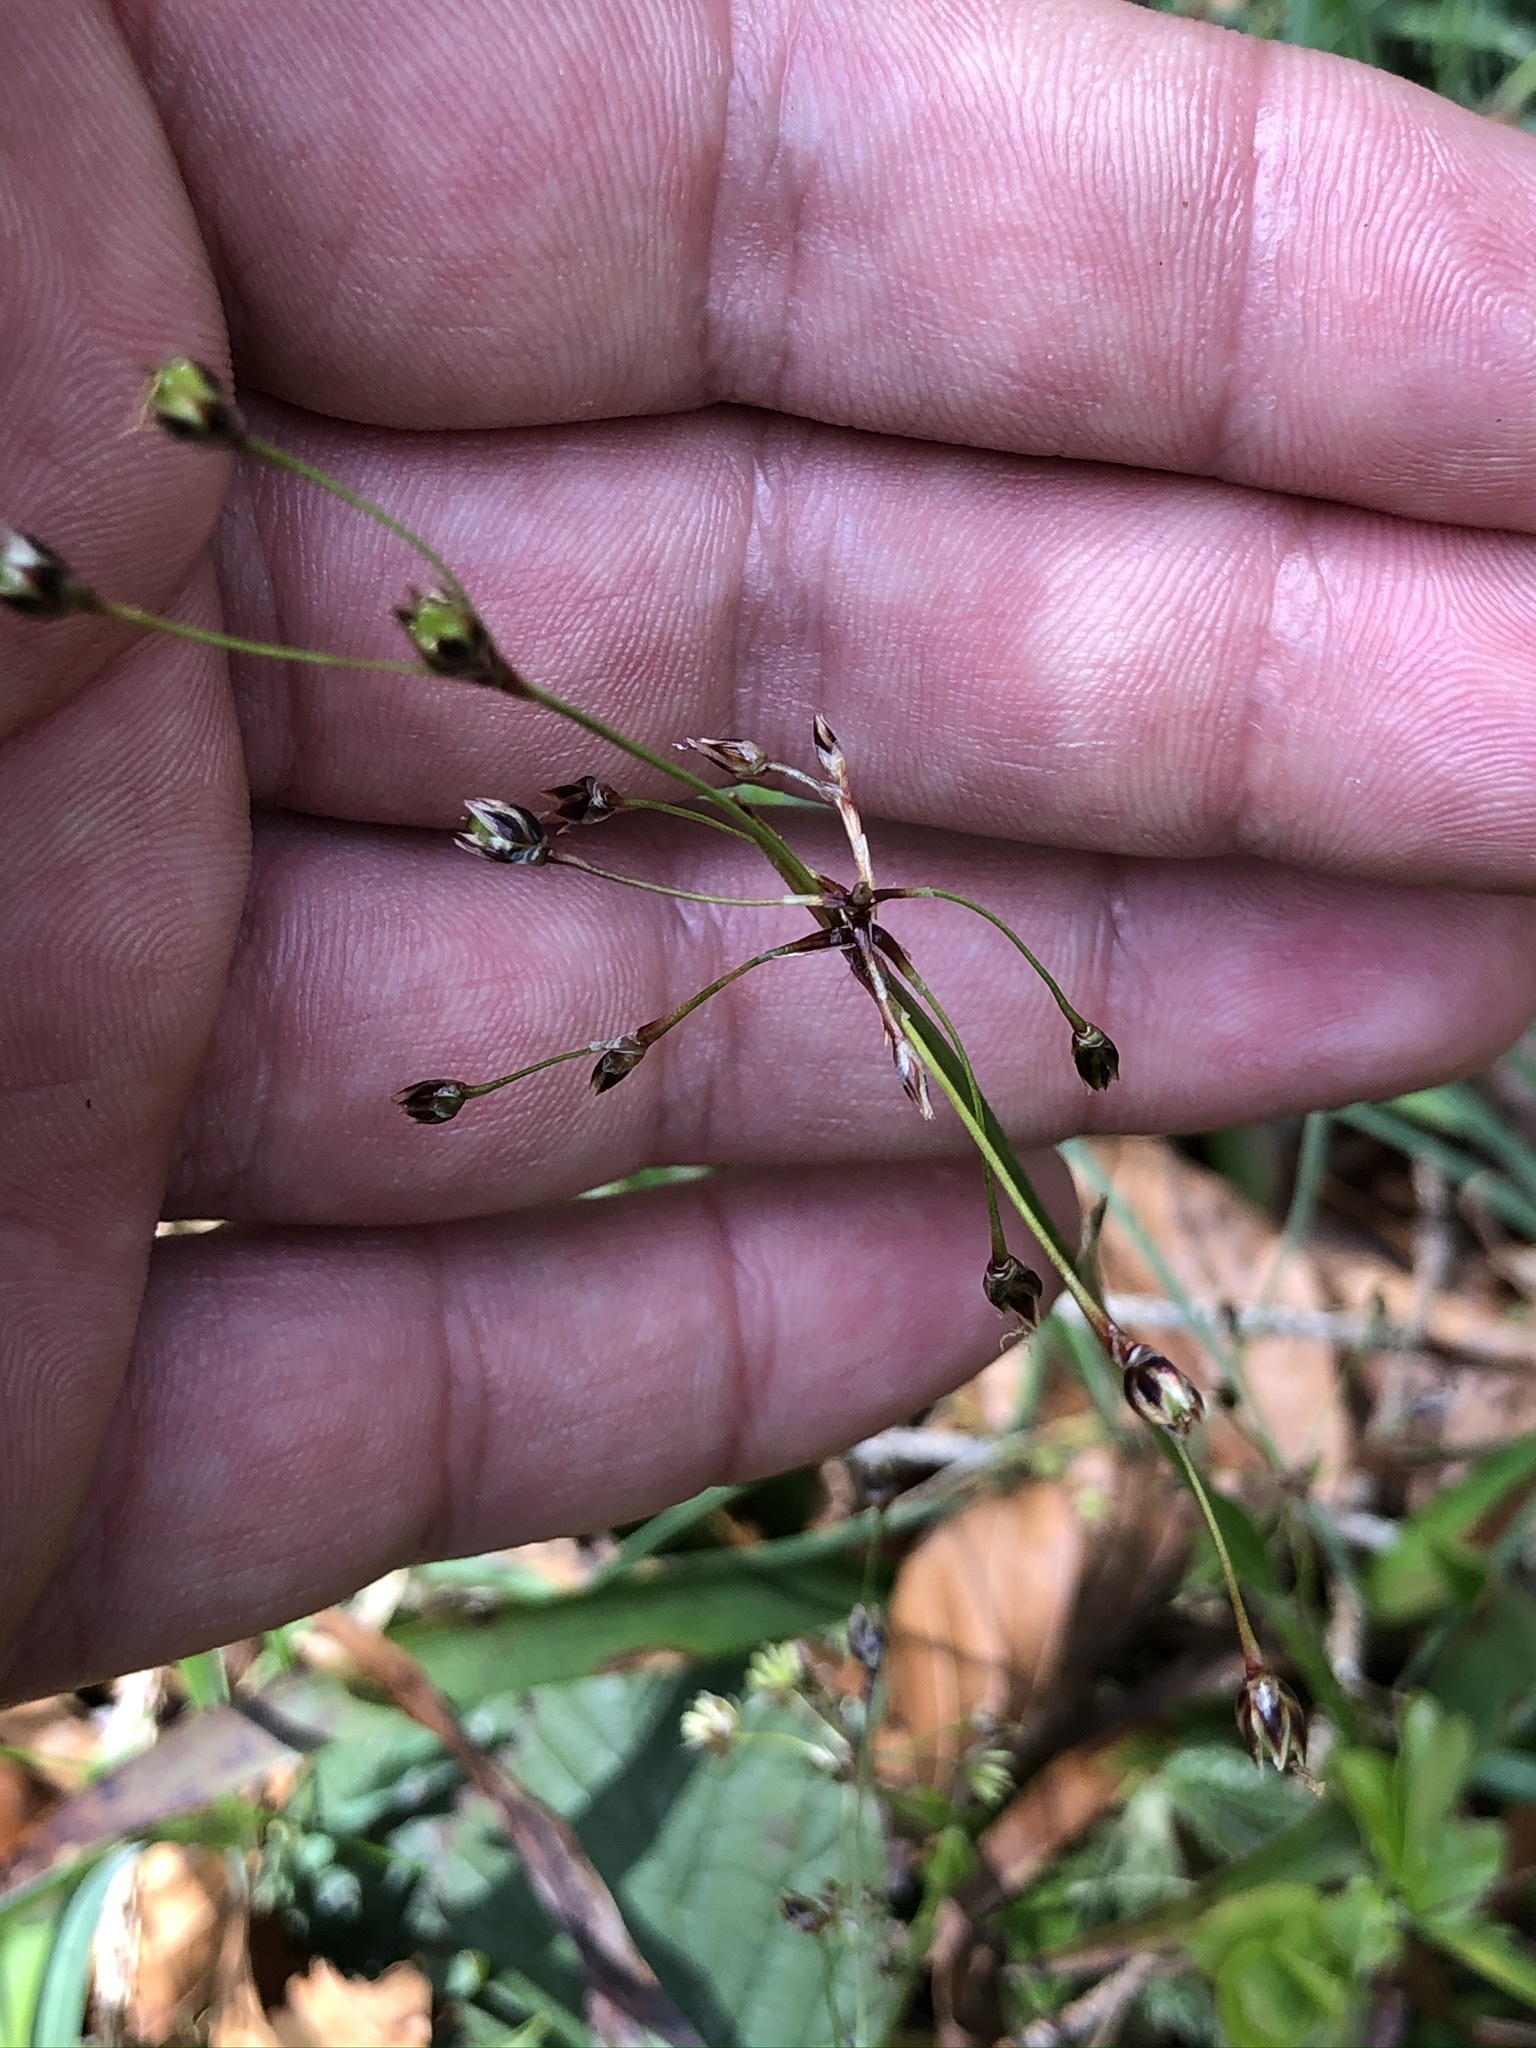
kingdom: Plantae
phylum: Tracheophyta
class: Liliopsida
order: Poales
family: Juncaceae
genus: Luzula
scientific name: Luzula pilosa
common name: Hairy wood-rush
